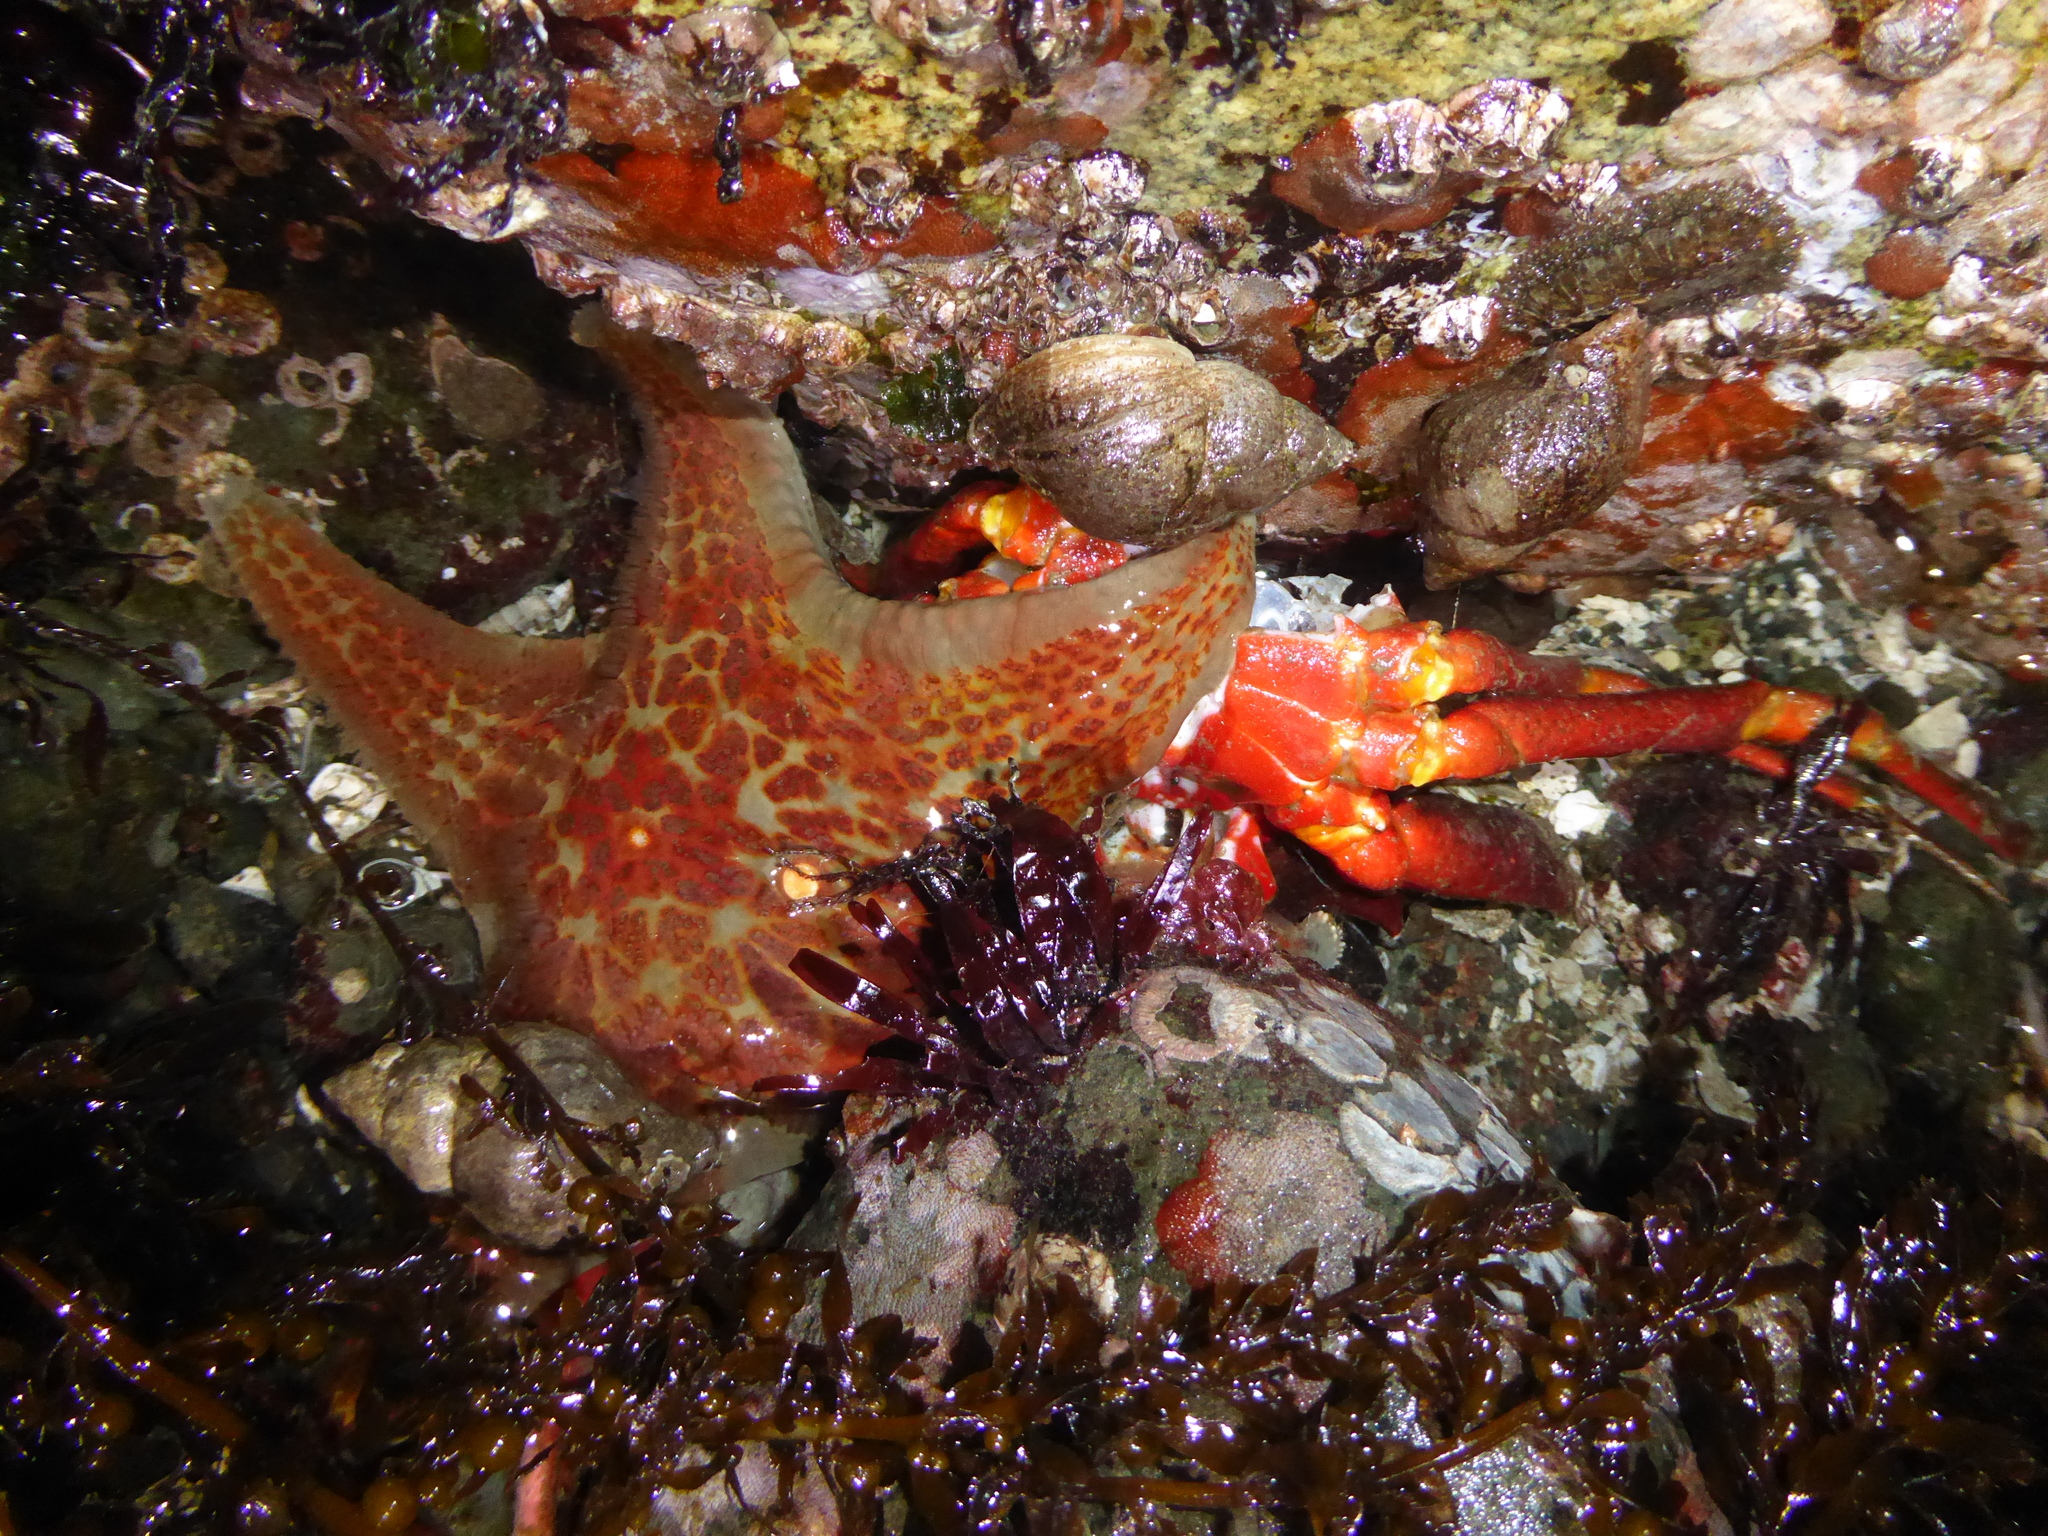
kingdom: Animalia
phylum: Echinodermata
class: Asteroidea
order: Valvatida
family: Asteropseidae
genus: Dermasterias
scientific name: Dermasterias imbricata
